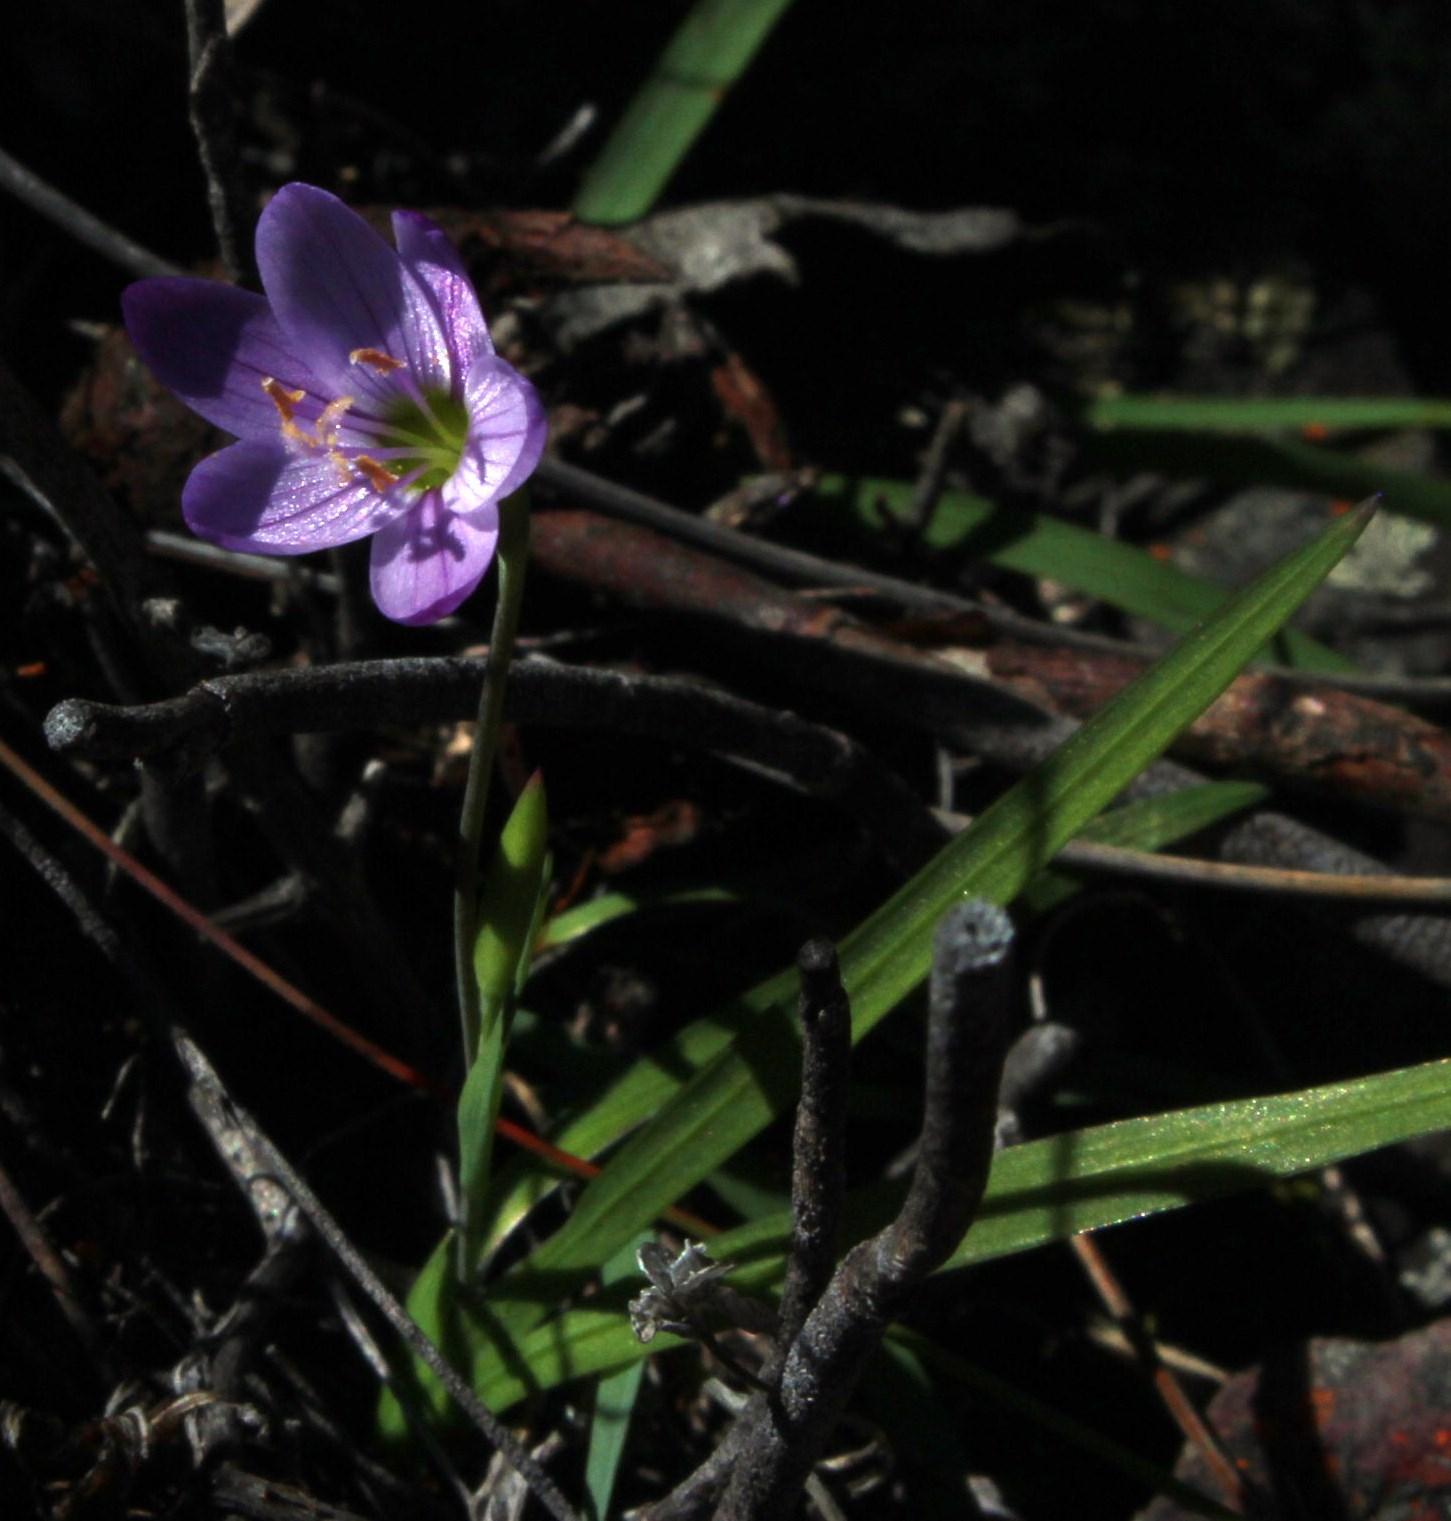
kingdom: Plantae
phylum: Tracheophyta
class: Liliopsida
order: Asparagales
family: Iridaceae
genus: Geissorhiza
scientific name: Geissorhiza foliosa
